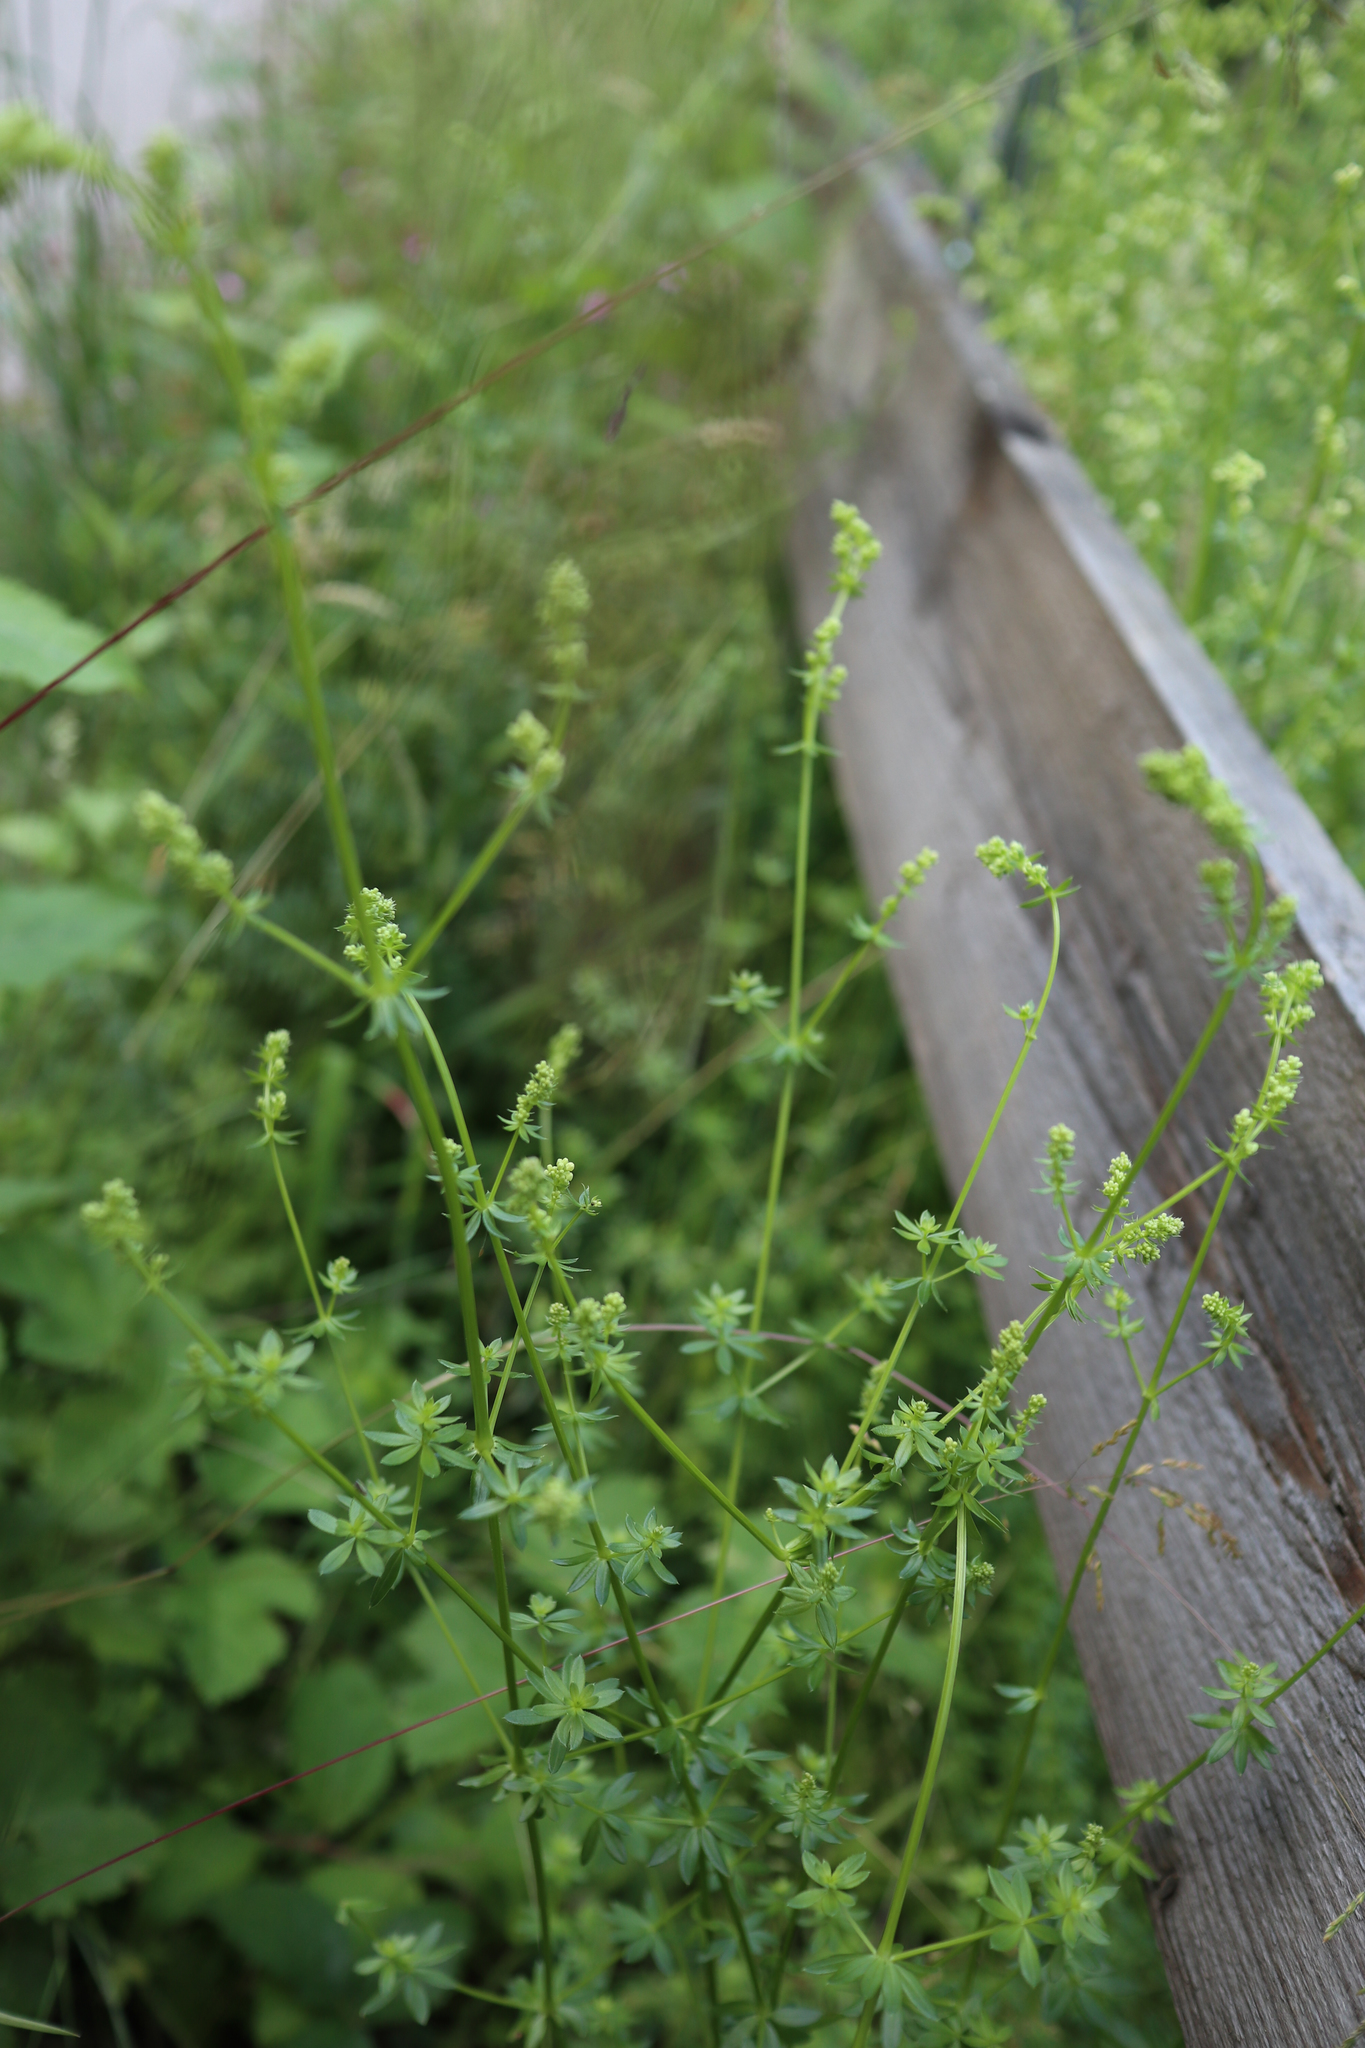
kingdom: Plantae
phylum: Tracheophyta
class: Magnoliopsida
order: Gentianales
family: Rubiaceae
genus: Galium
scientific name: Galium mollugo
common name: Hedge bedstraw
